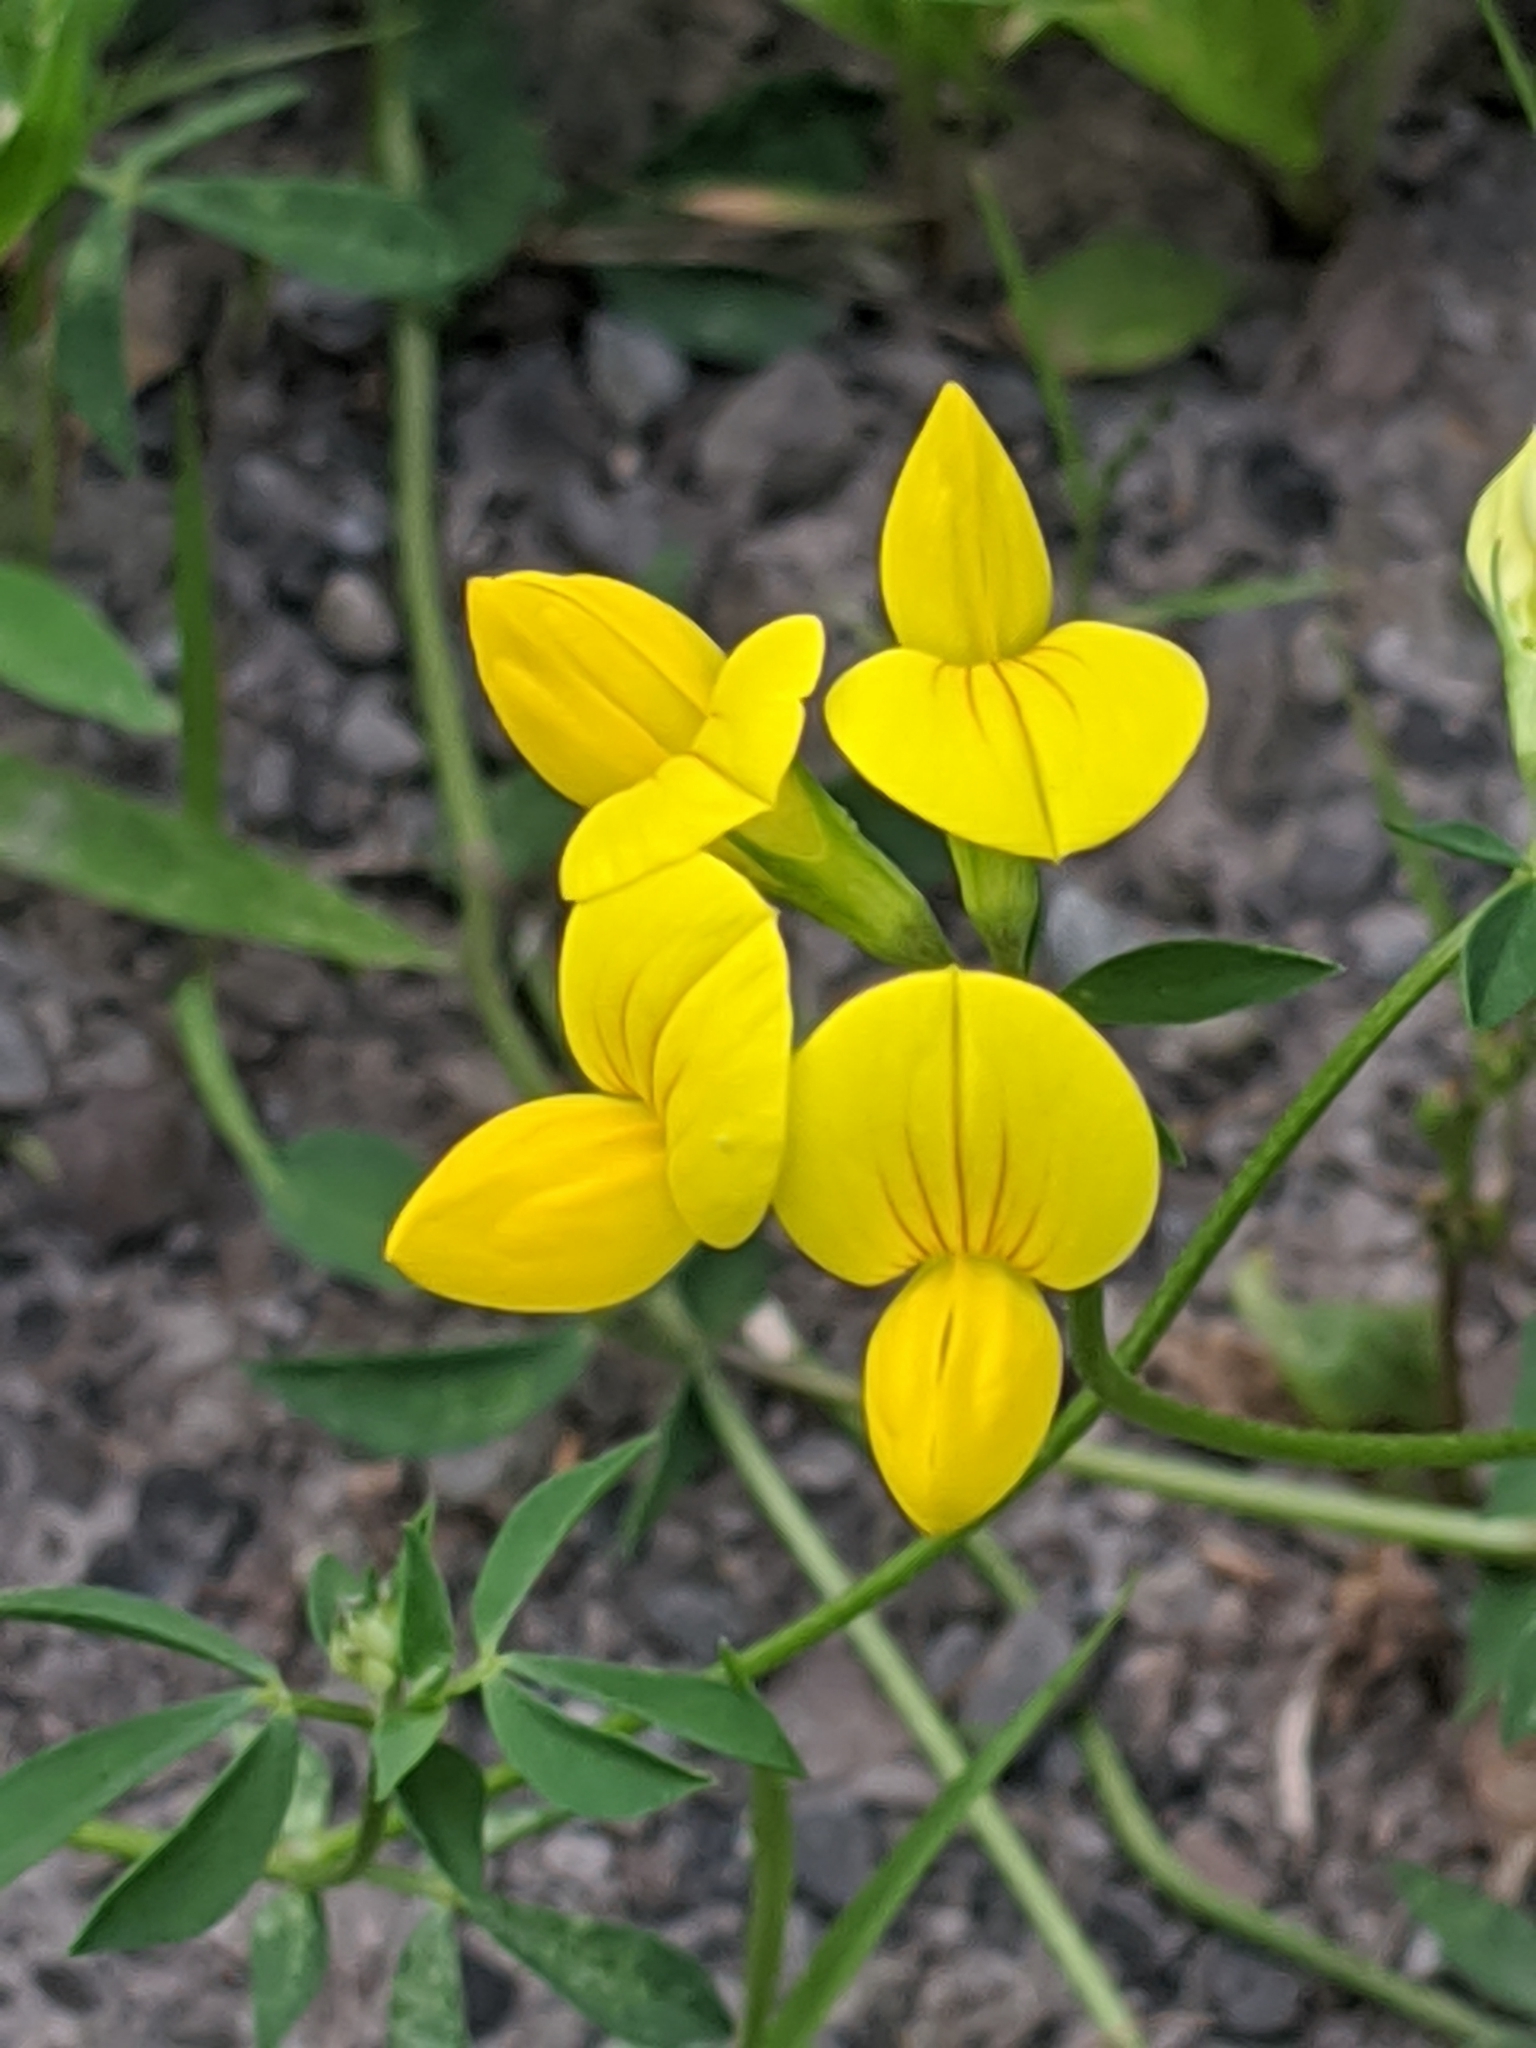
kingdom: Plantae
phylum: Tracheophyta
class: Magnoliopsida
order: Fabales
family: Fabaceae
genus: Lotus
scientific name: Lotus corniculatus
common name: Common bird's-foot-trefoil
